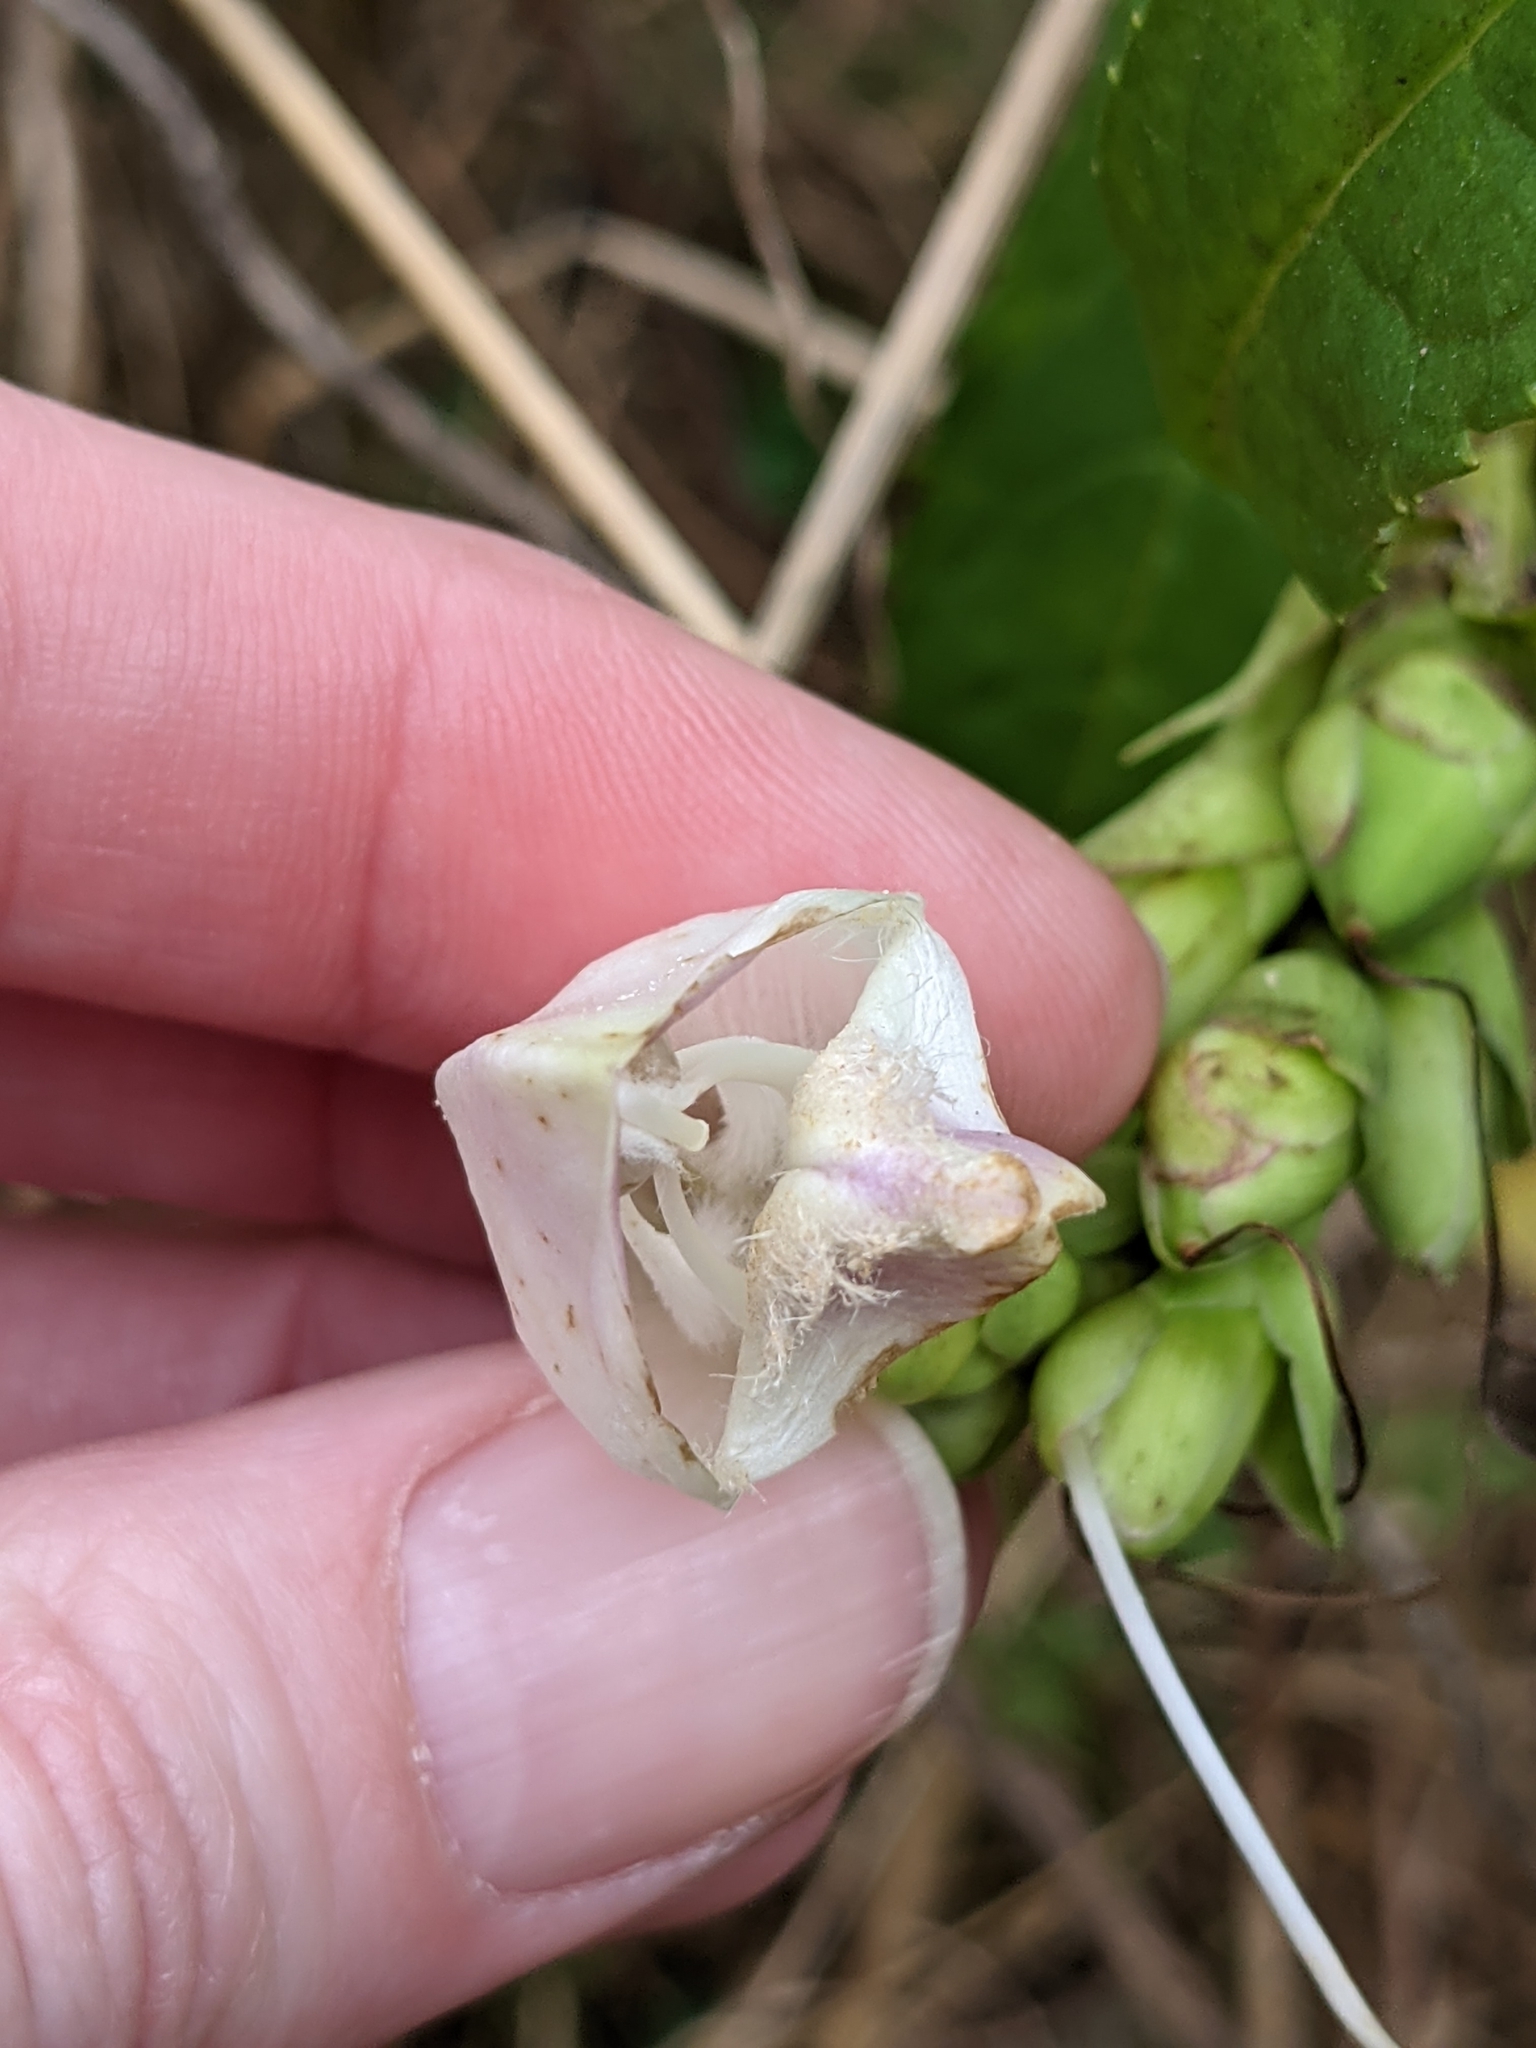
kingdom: Plantae
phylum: Tracheophyta
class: Magnoliopsida
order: Lamiales
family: Plantaginaceae
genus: Chelone
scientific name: Chelone glabra
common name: Snakehead
